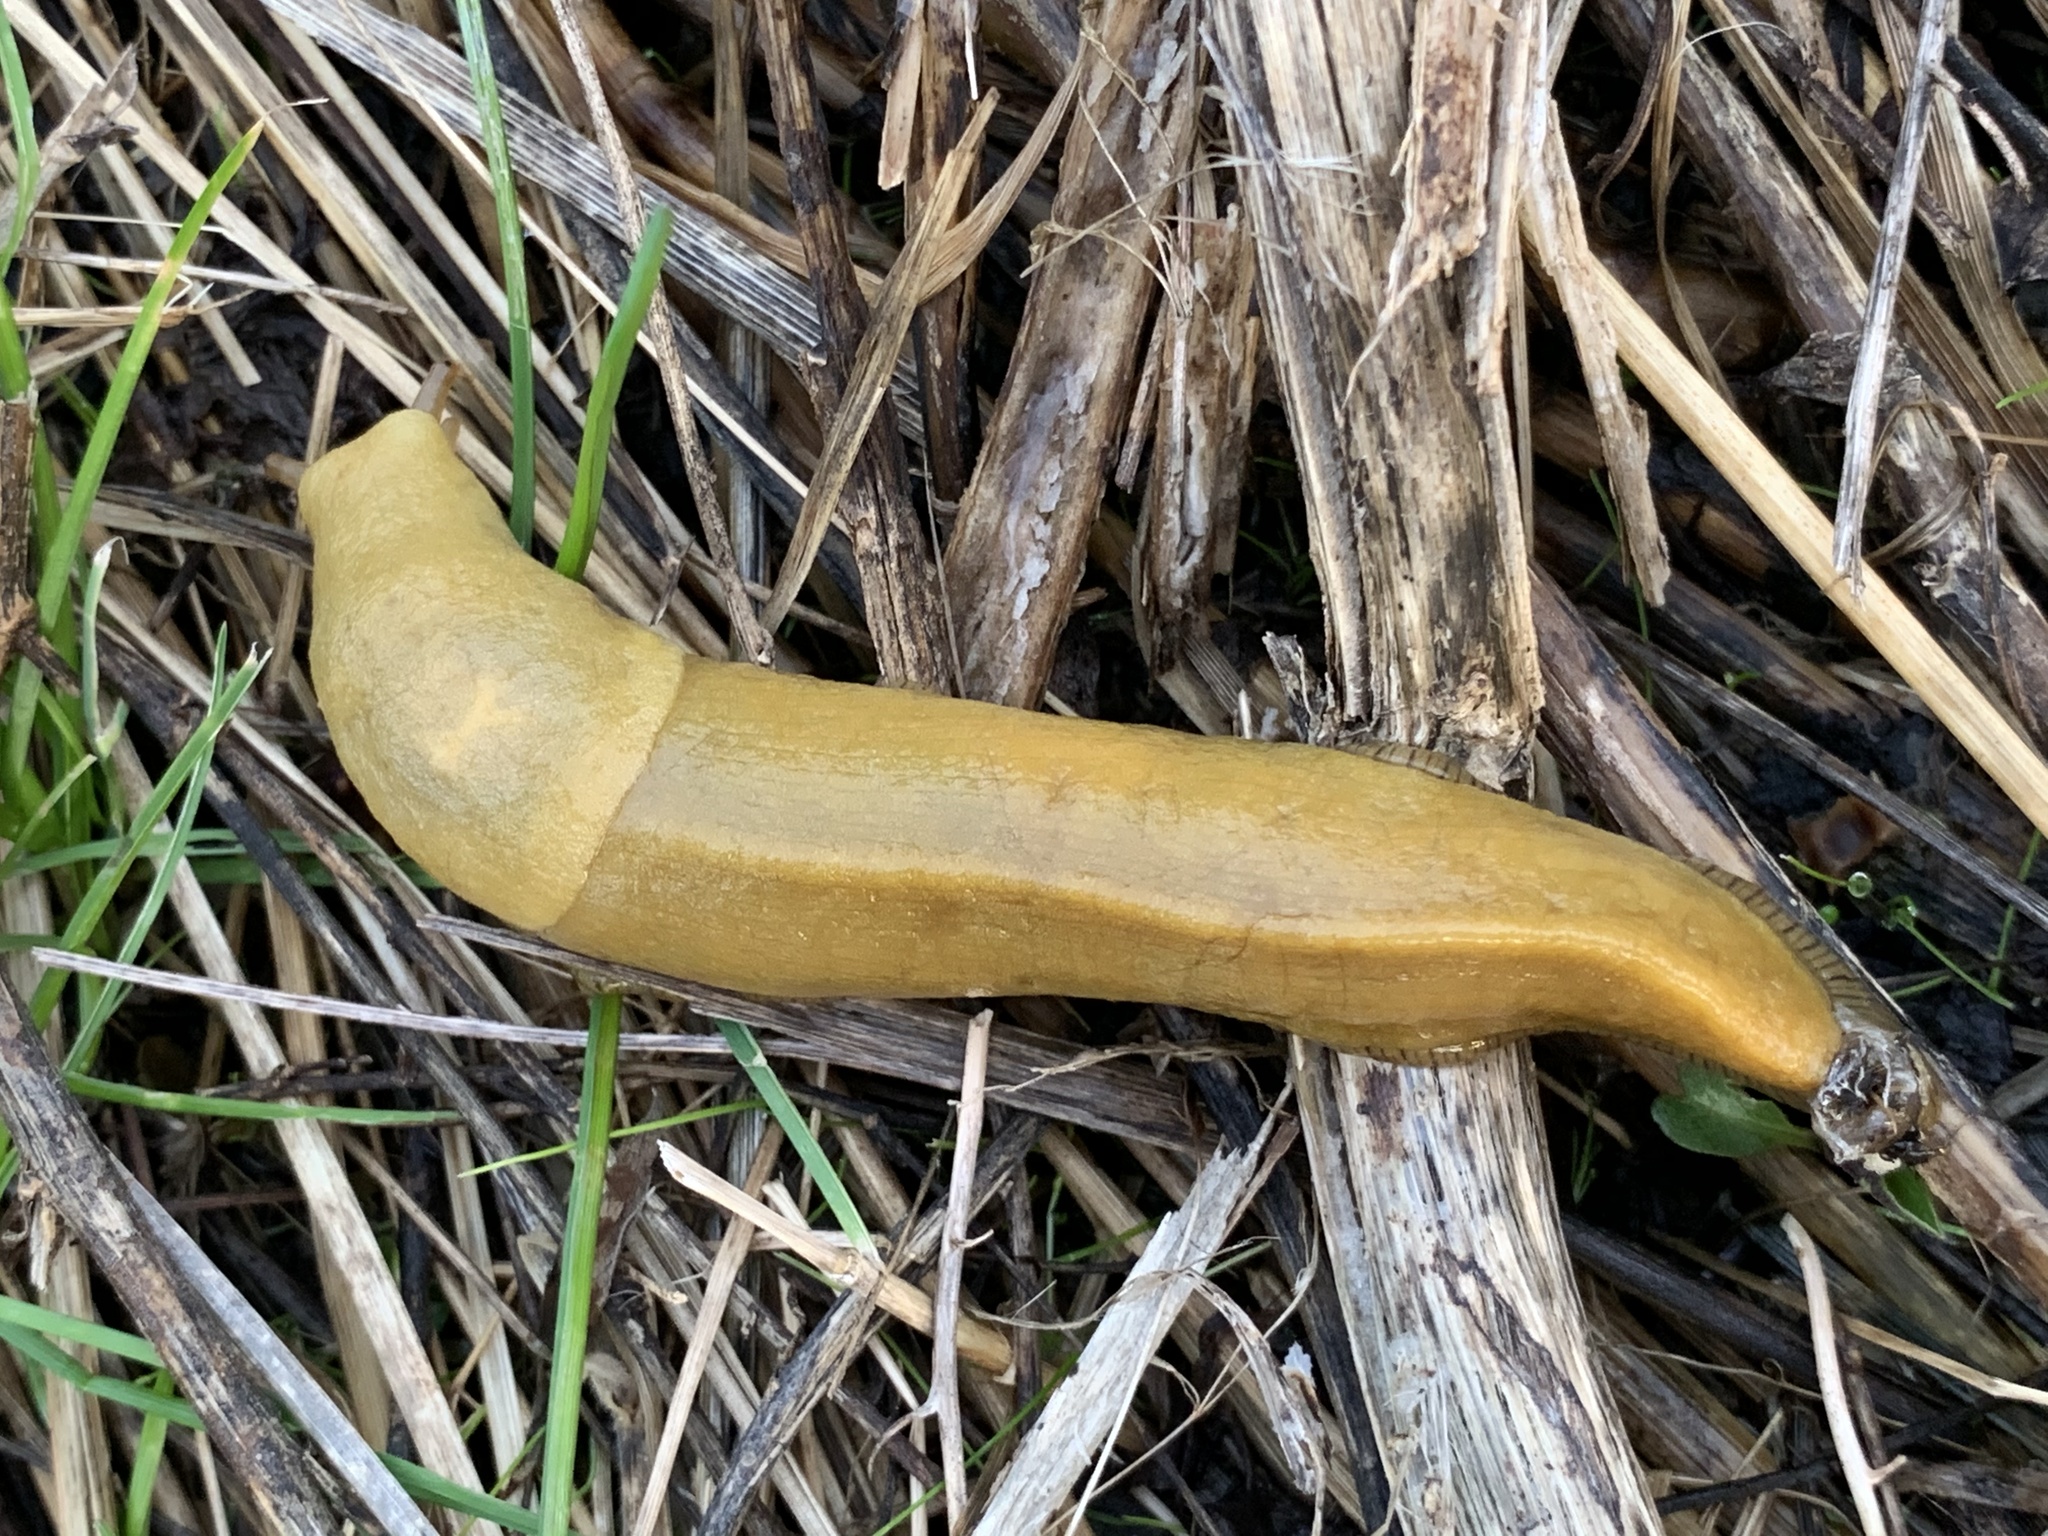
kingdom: Animalia
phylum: Mollusca
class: Gastropoda
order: Stylommatophora
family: Ariolimacidae
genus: Ariolimax
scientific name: Ariolimax columbianus
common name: Pacific banana slug
